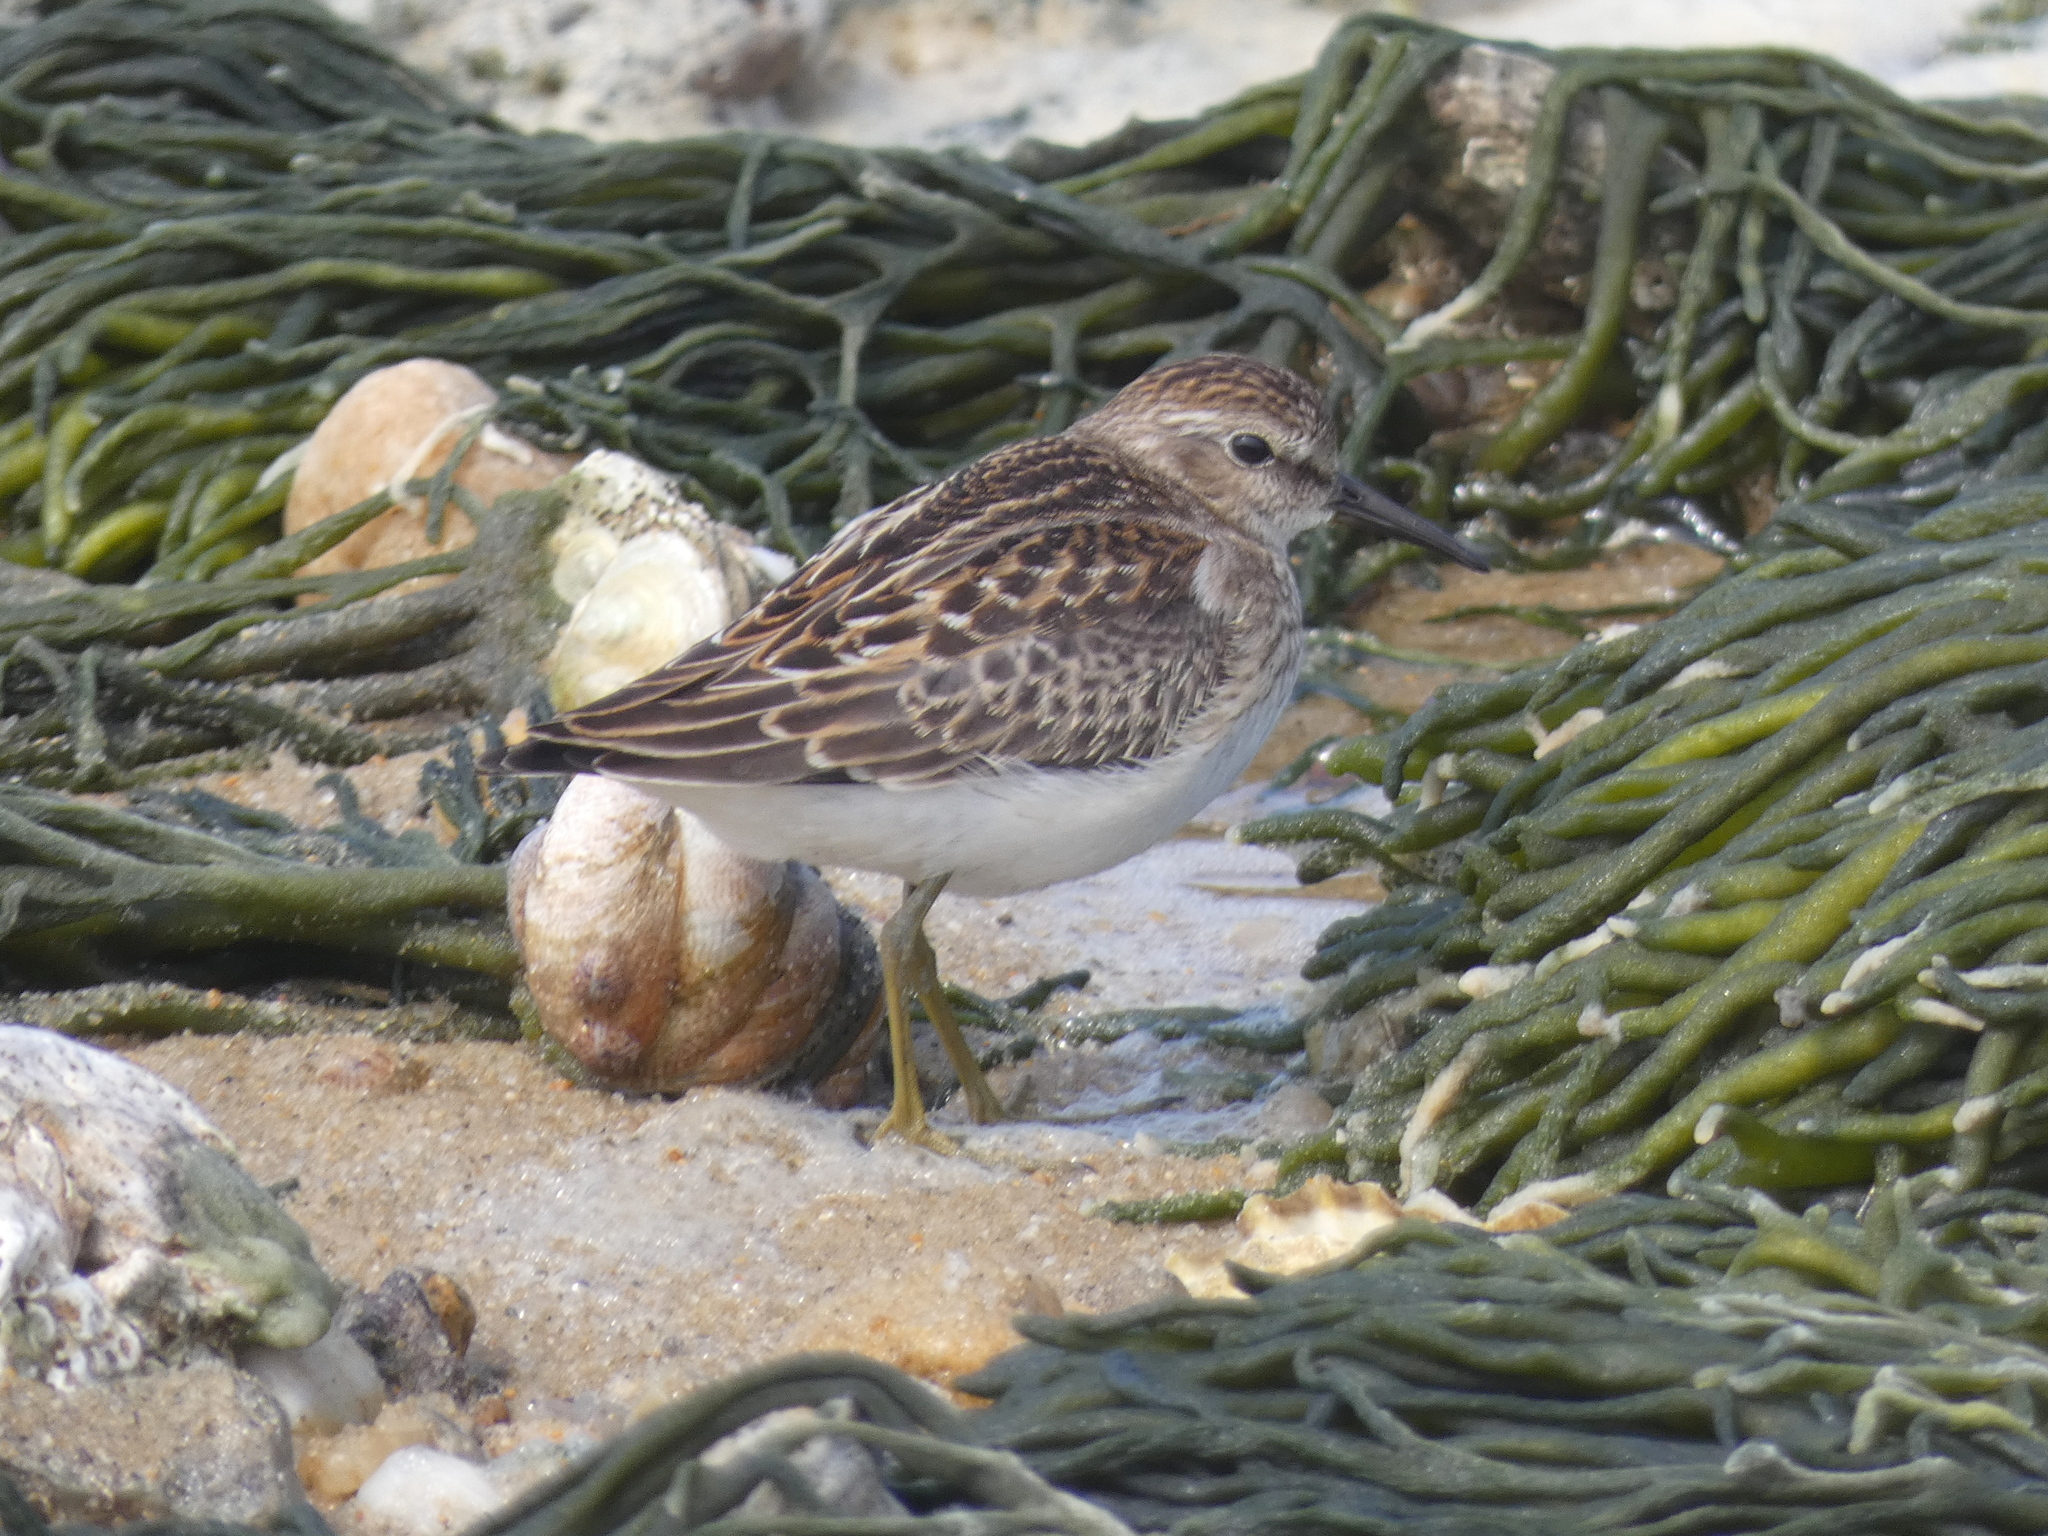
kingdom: Animalia
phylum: Chordata
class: Aves
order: Charadriiformes
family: Scolopacidae
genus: Calidris
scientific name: Calidris minutilla
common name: Least sandpiper
